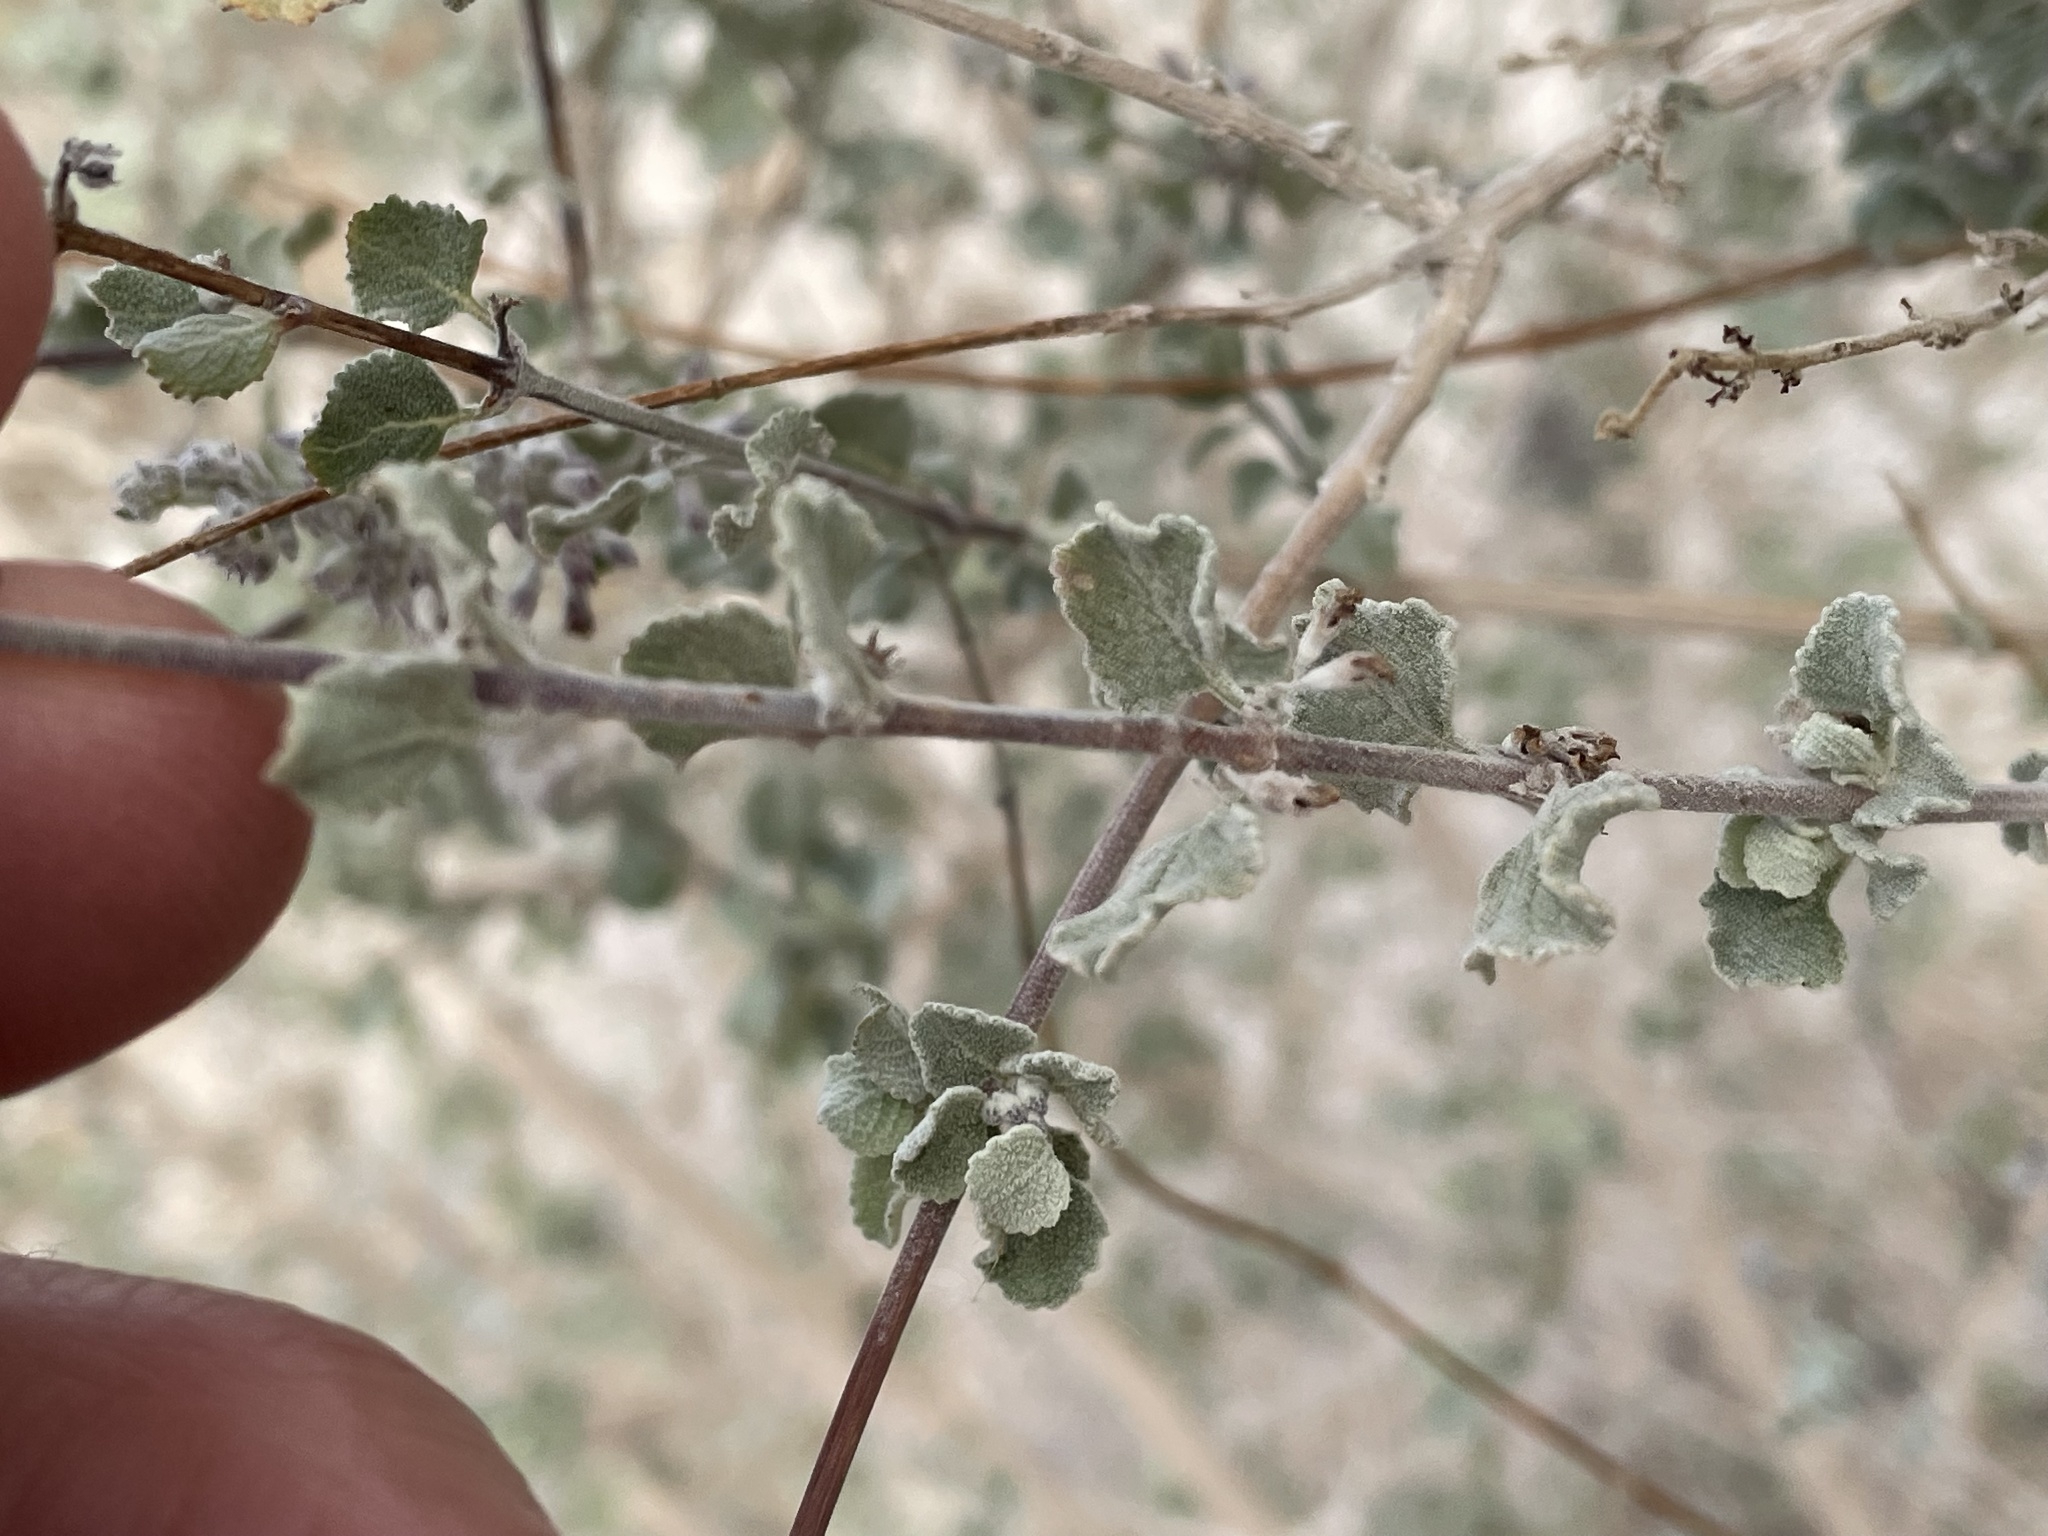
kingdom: Plantae
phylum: Tracheophyta
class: Magnoliopsida
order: Lamiales
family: Lamiaceae
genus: Condea
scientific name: Condea emoryi
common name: Chia
